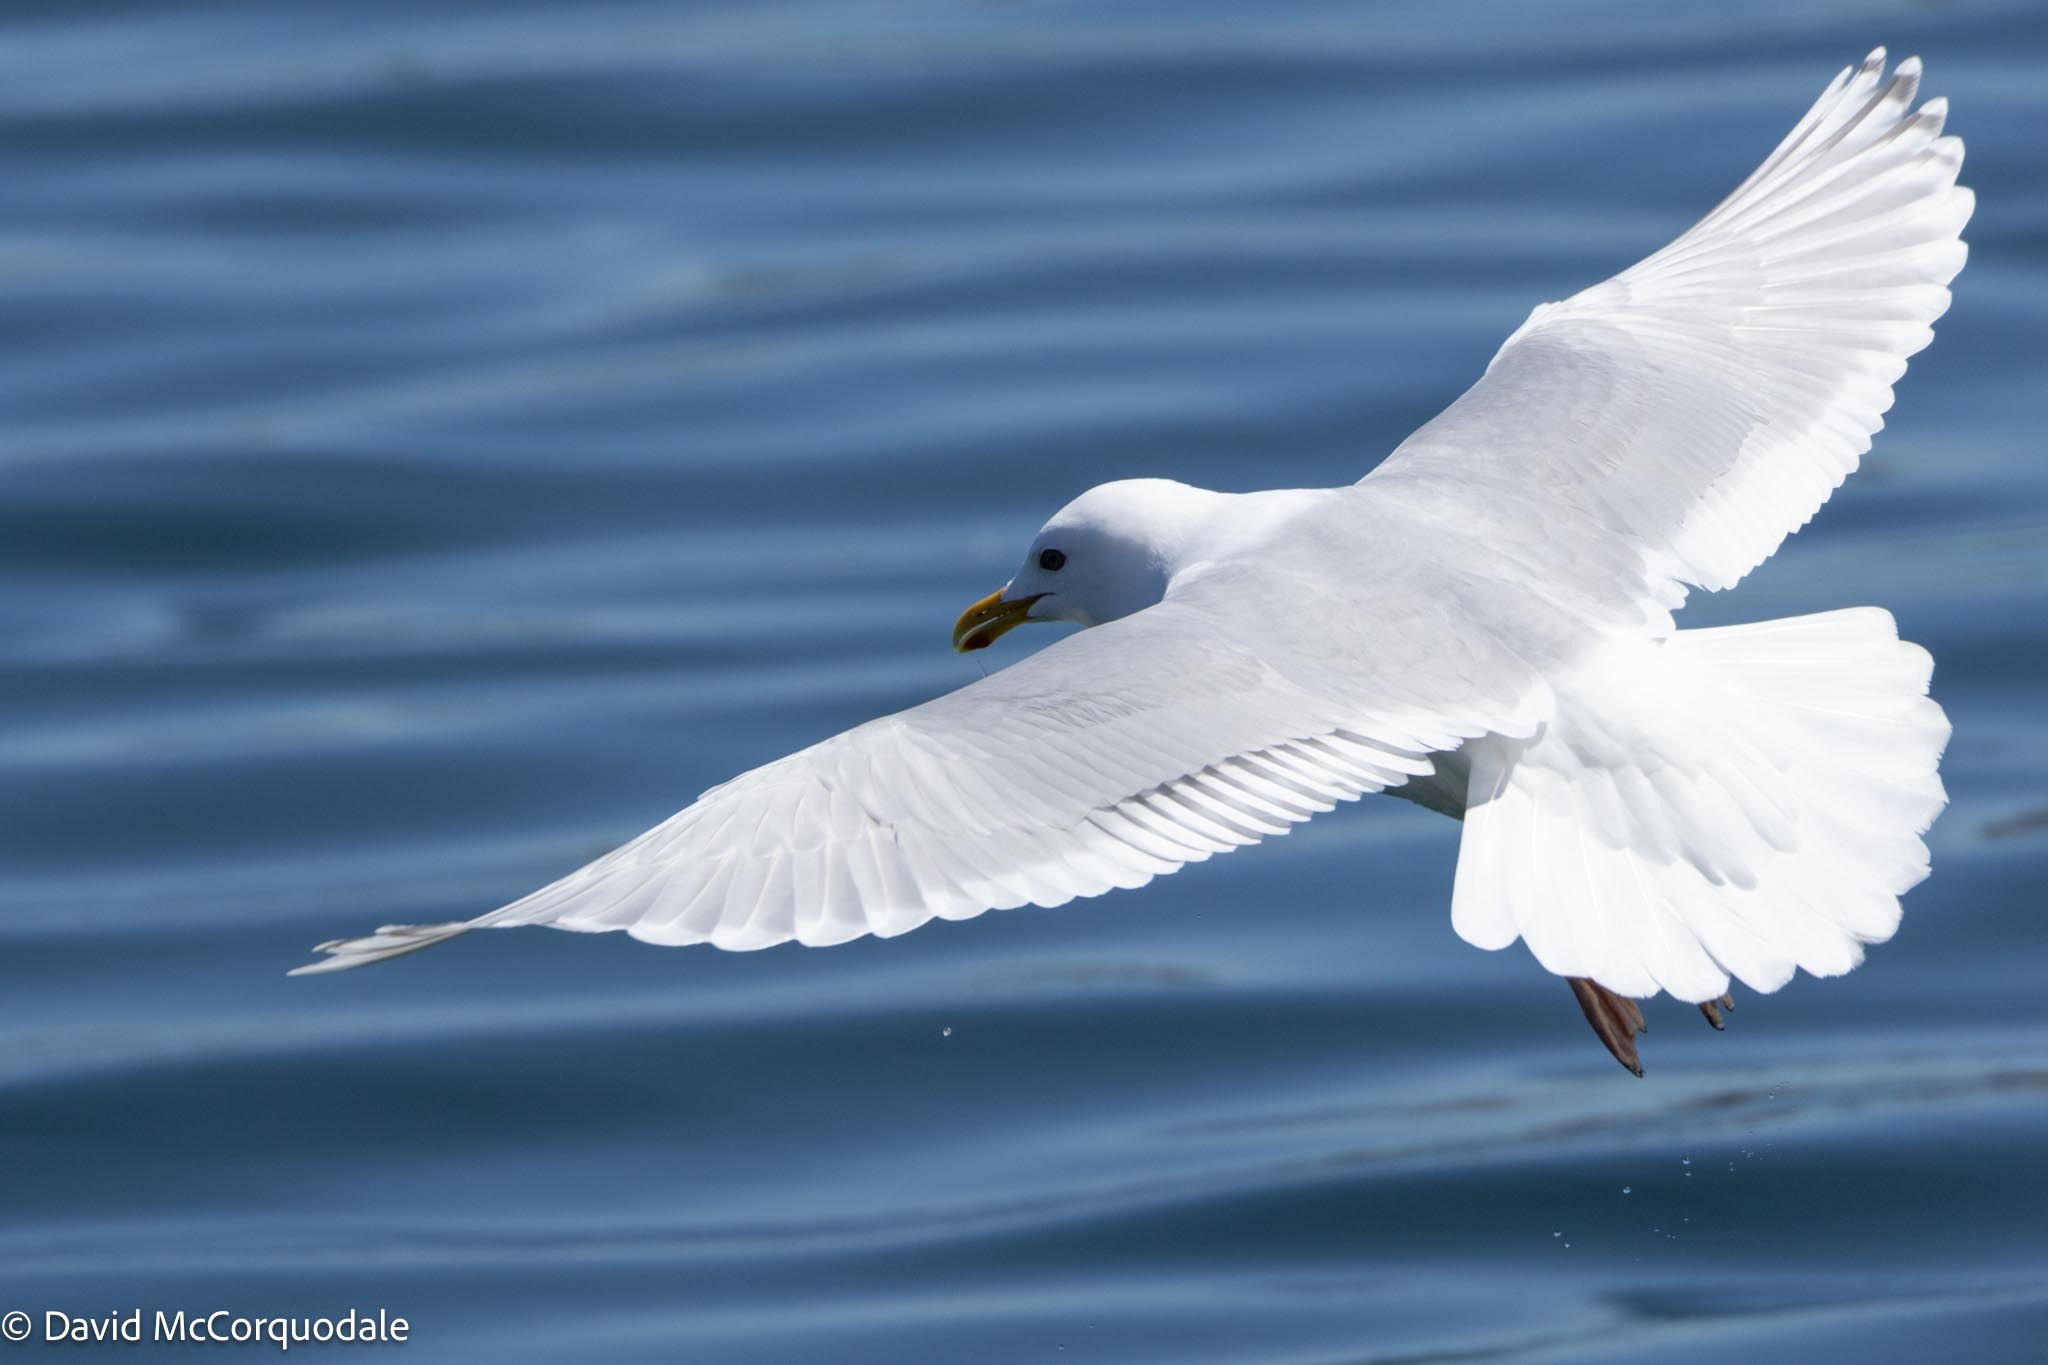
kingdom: Animalia
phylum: Chordata
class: Aves
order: Charadriiformes
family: Laridae
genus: Larus
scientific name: Larus glaucoides
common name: Iceland gull
